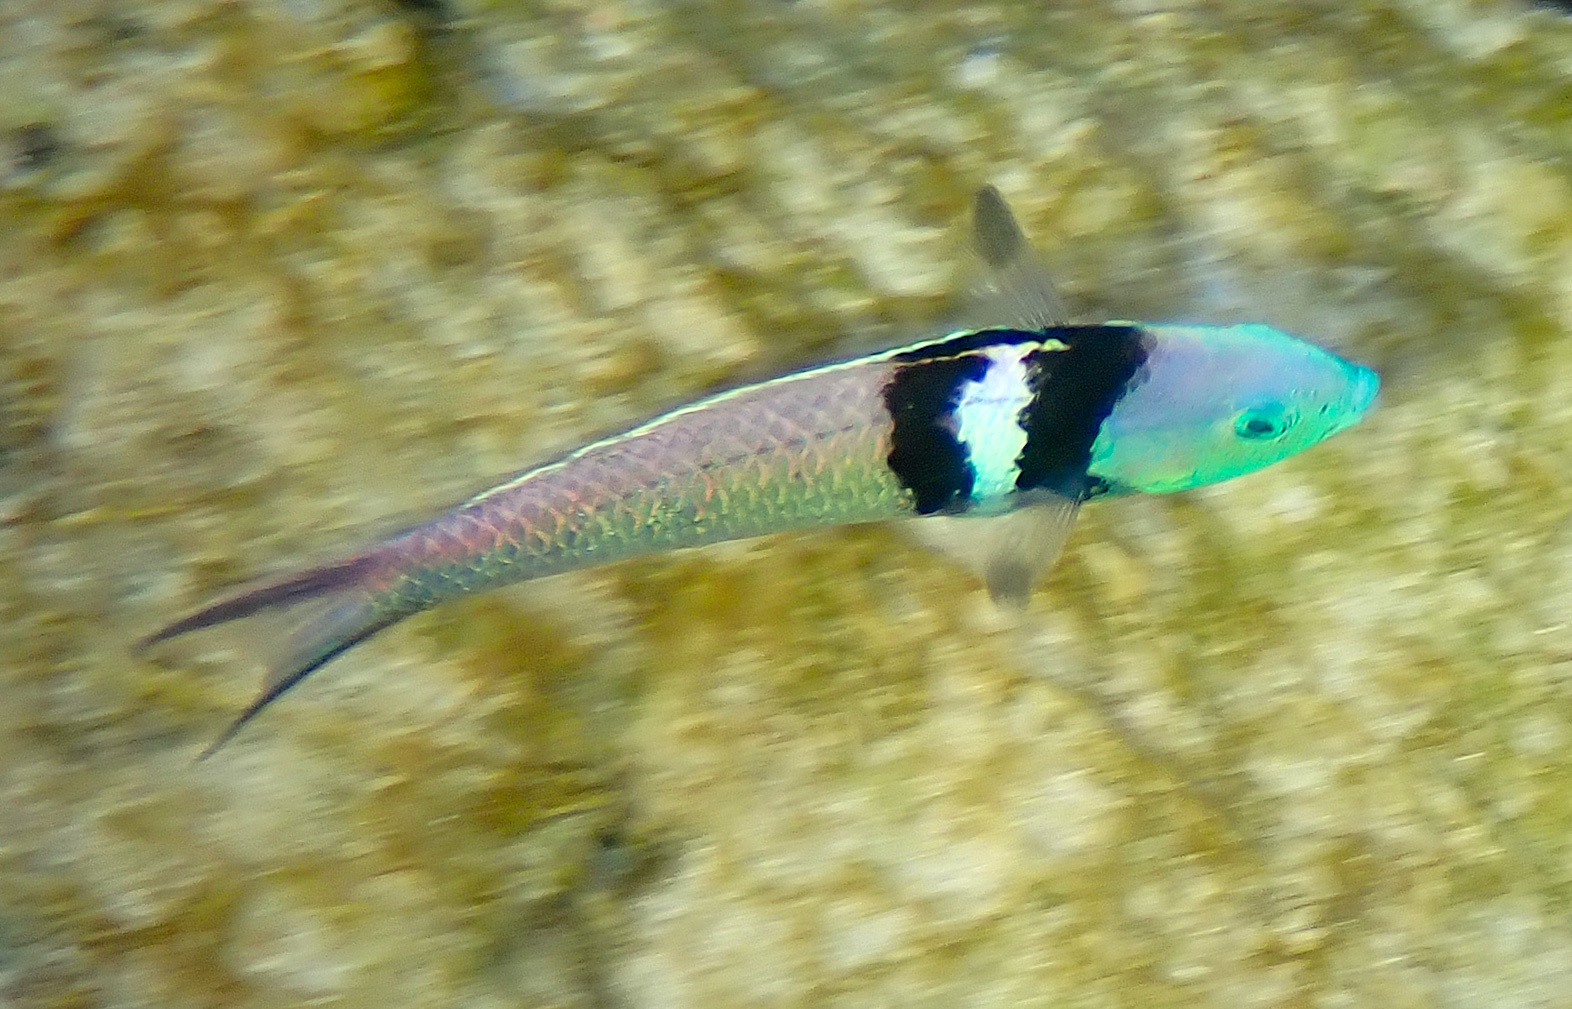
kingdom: Animalia
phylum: Chordata
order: Perciformes
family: Labridae
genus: Thalassoma
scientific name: Thalassoma bifasciatum
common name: Bluehead wrasse
